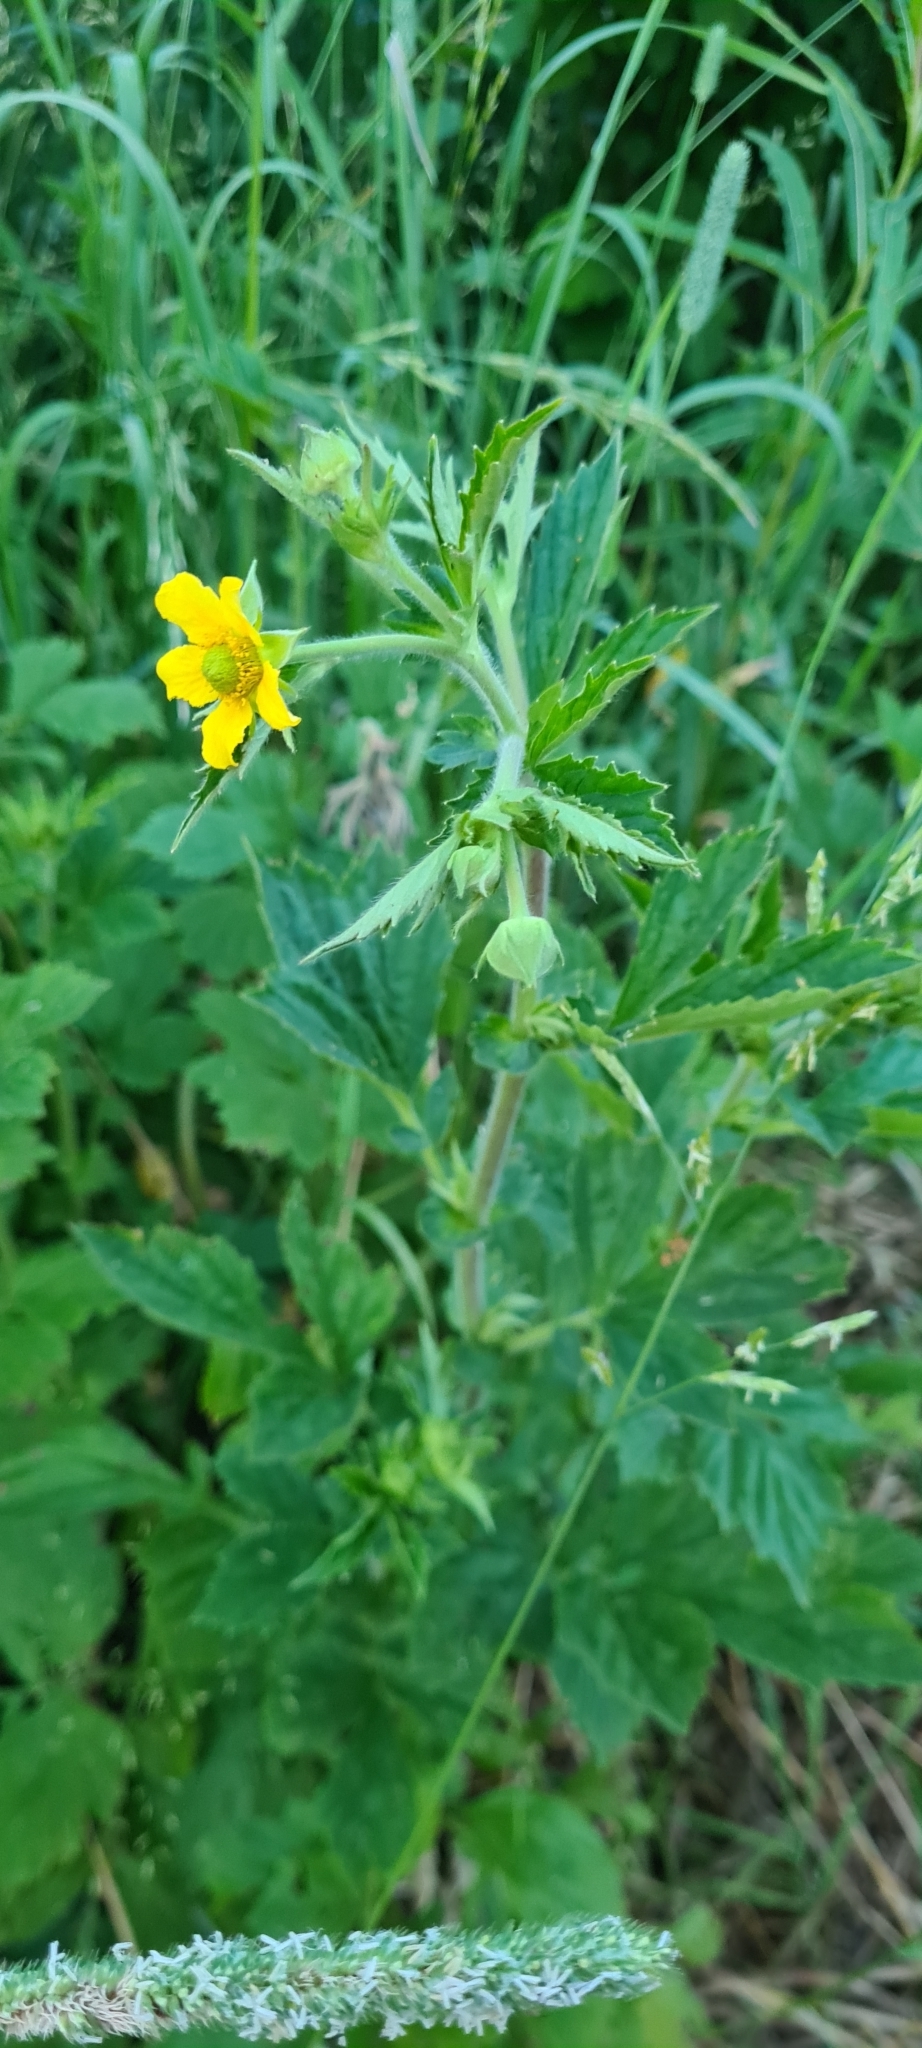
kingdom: Plantae
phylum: Tracheophyta
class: Magnoliopsida
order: Rosales
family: Rosaceae
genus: Geum
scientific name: Geum aleppicum
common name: Yellow avens
